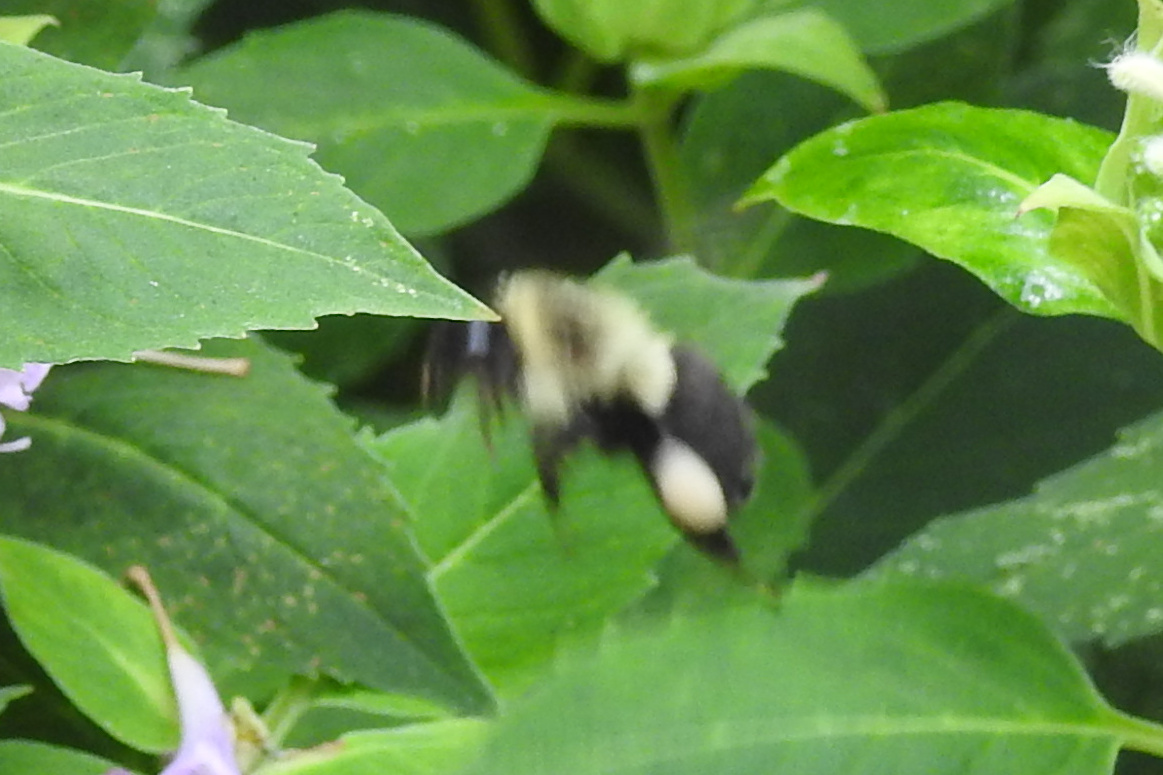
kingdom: Animalia
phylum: Arthropoda
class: Insecta
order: Hymenoptera
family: Apidae
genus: Bombus
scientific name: Bombus impatiens
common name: Common eastern bumble bee
